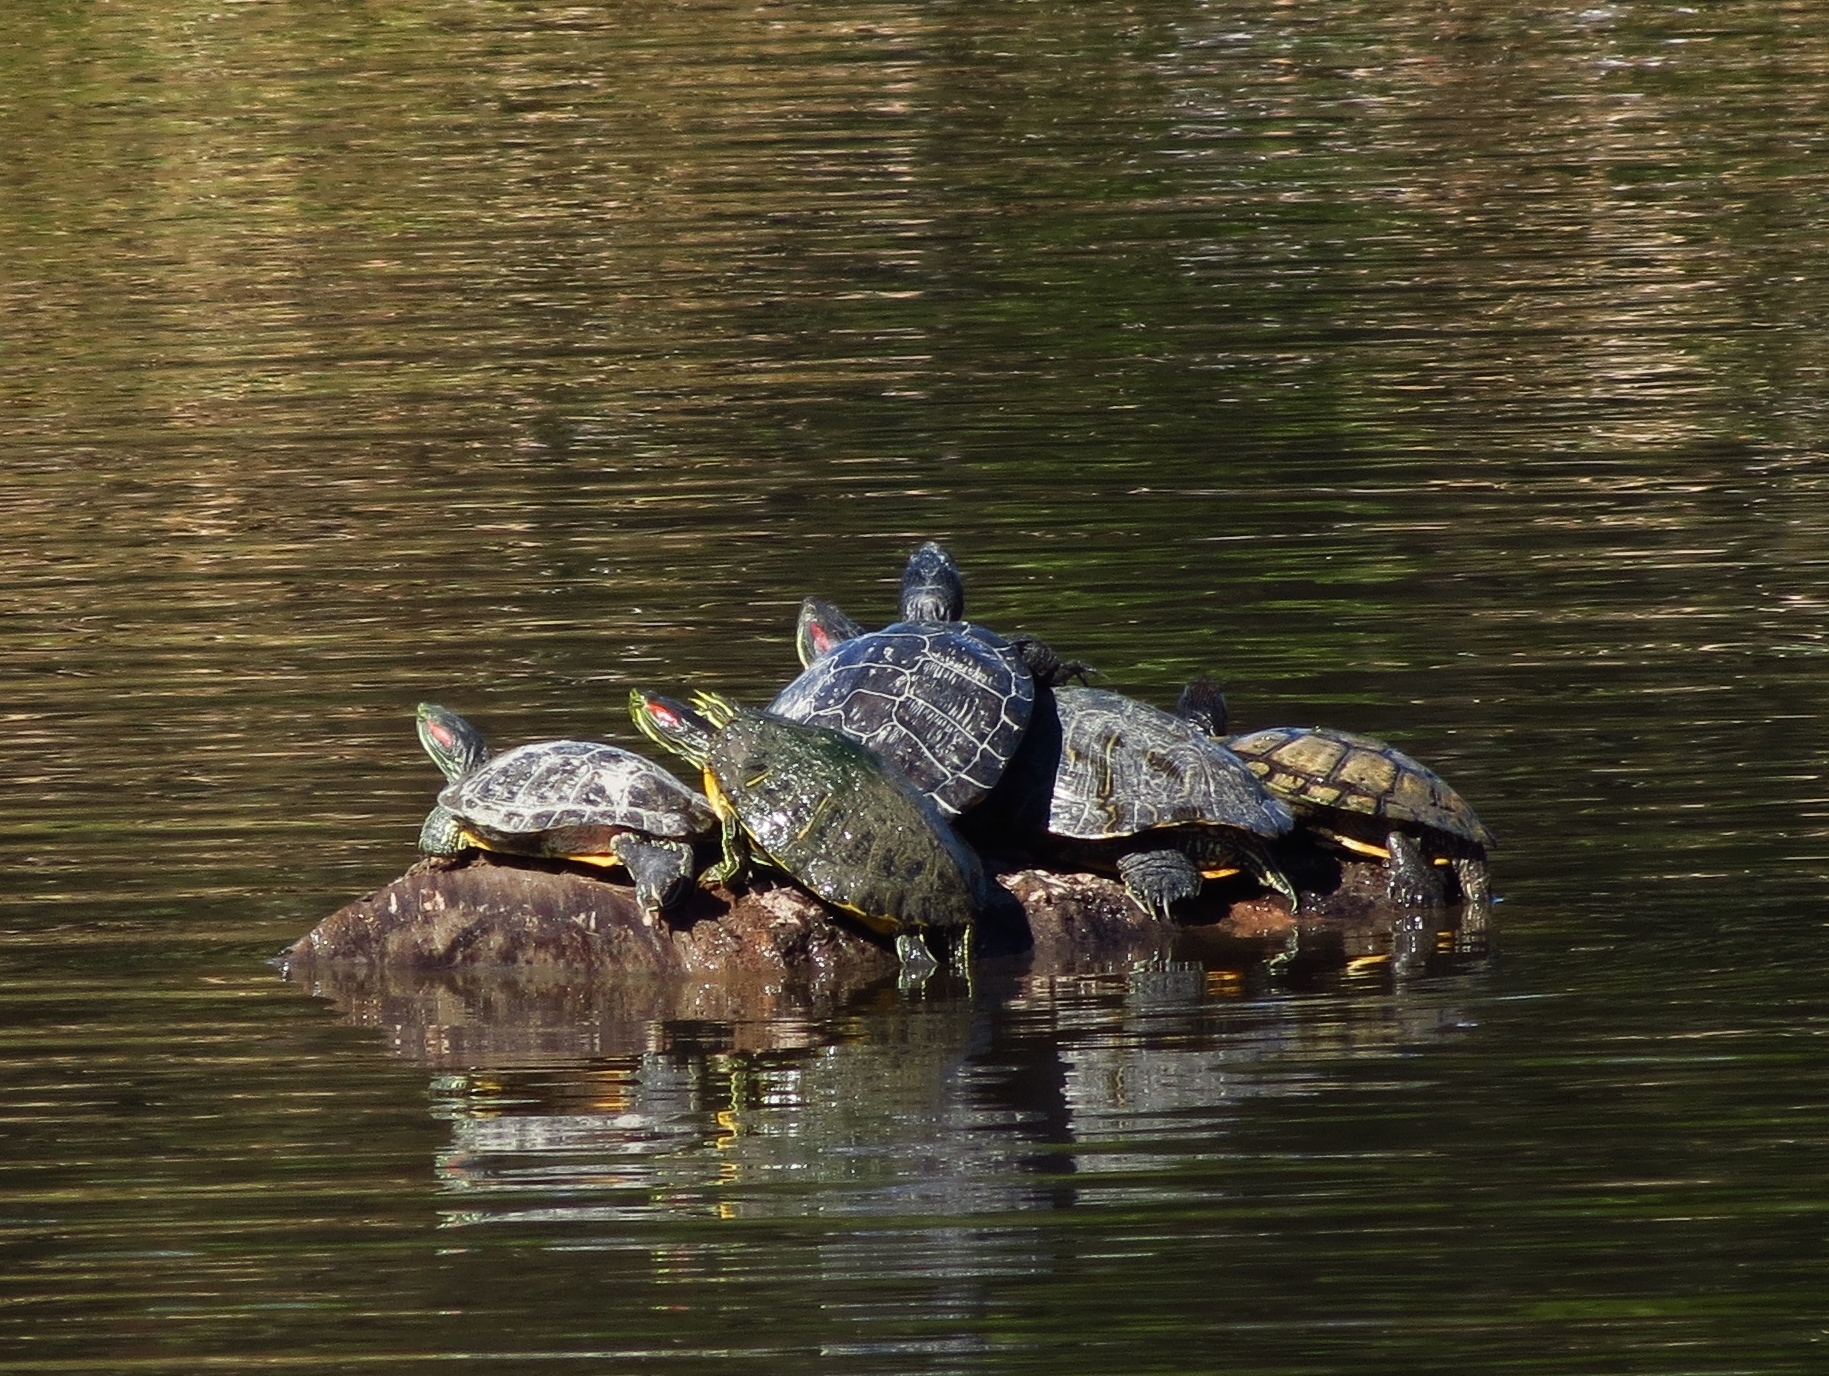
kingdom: Animalia
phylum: Chordata
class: Testudines
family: Emydidae
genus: Trachemys
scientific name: Trachemys scripta
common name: Slider
